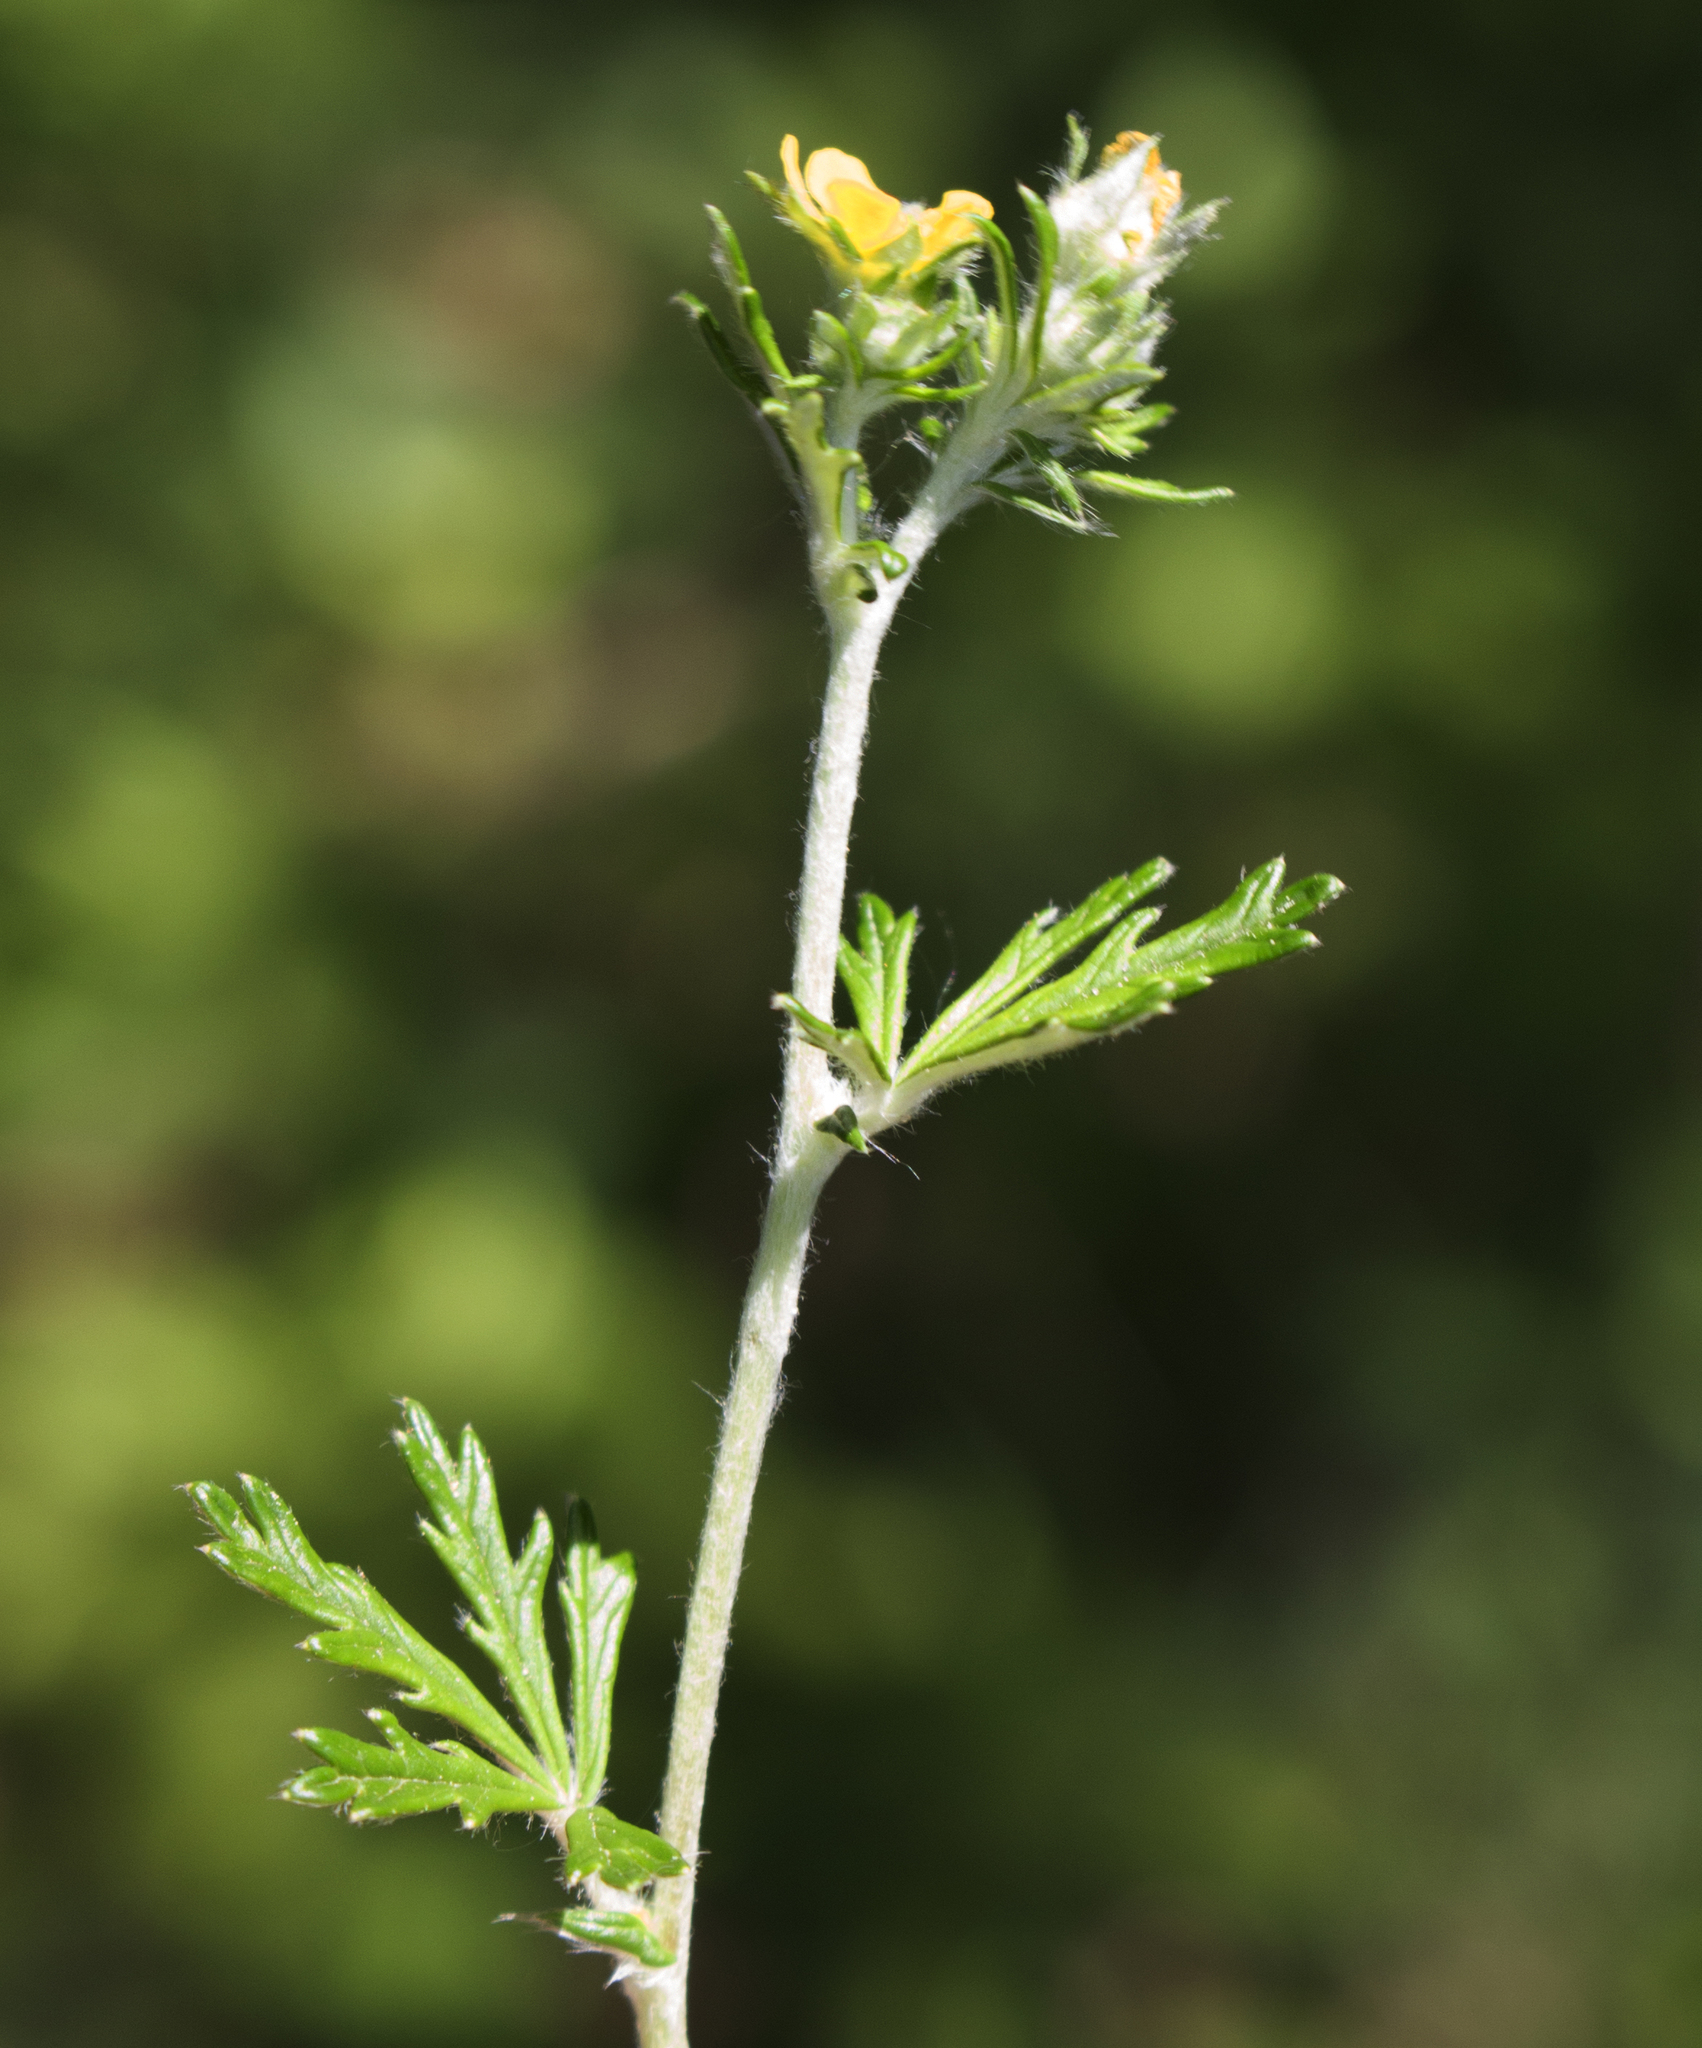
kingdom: Plantae
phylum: Tracheophyta
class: Magnoliopsida
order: Rosales
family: Rosaceae
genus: Potentilla
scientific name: Potentilla argentea
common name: Hoary cinquefoil
